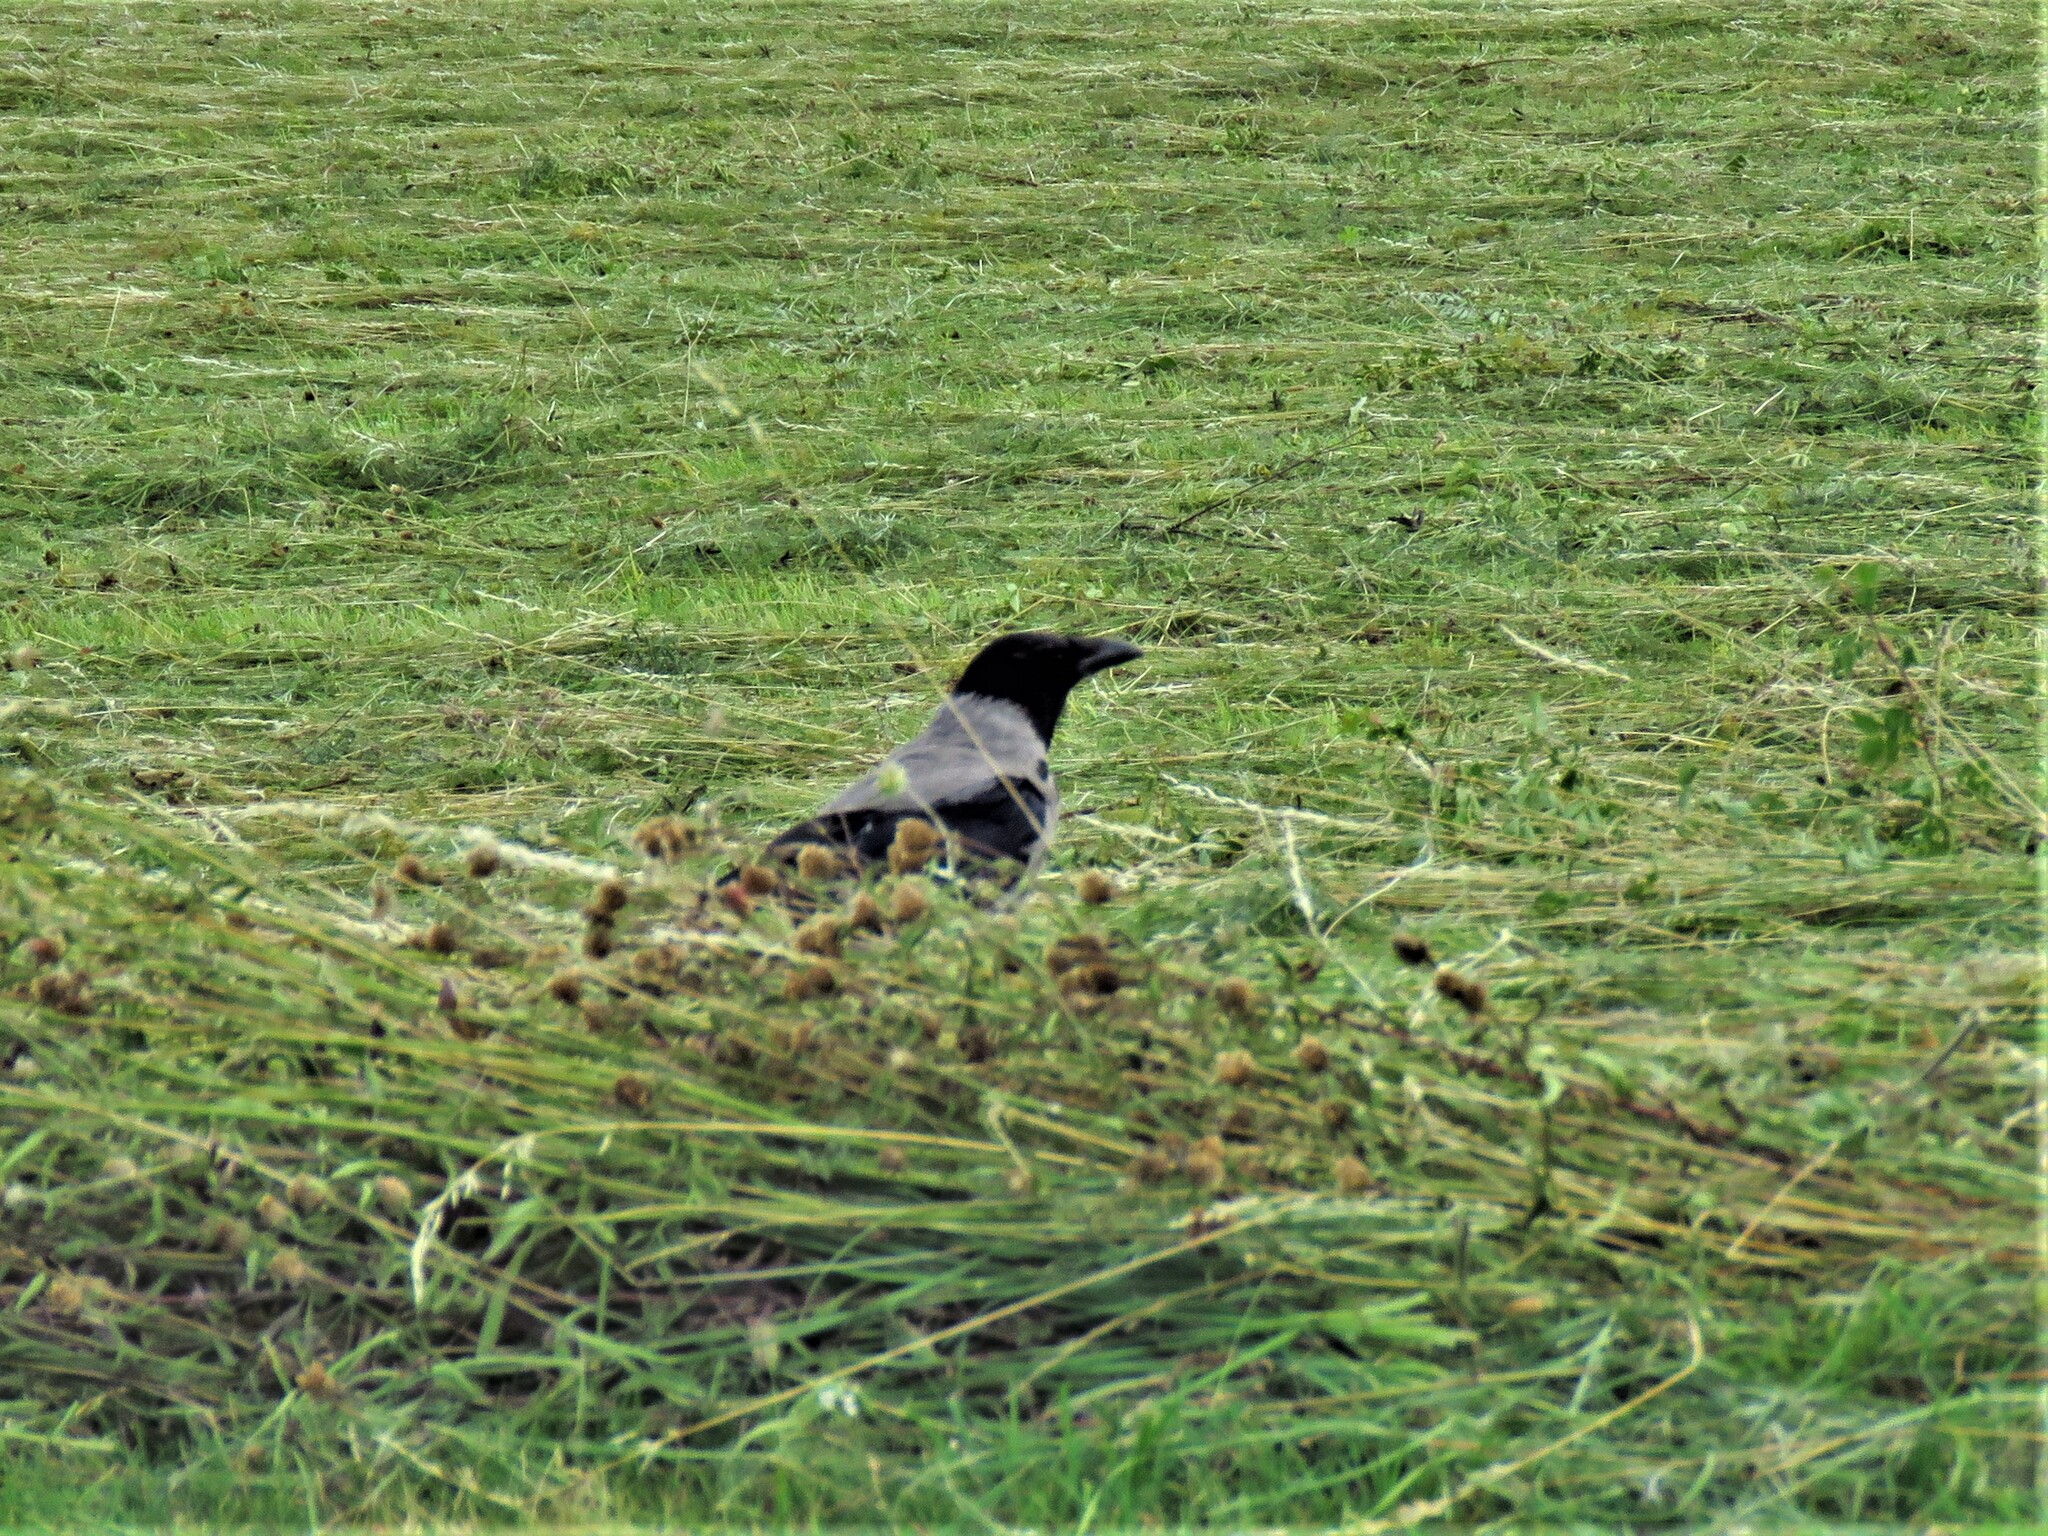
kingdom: Animalia
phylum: Chordata
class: Aves
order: Passeriformes
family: Corvidae
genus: Corvus
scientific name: Corvus cornix
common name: Hooded crow
